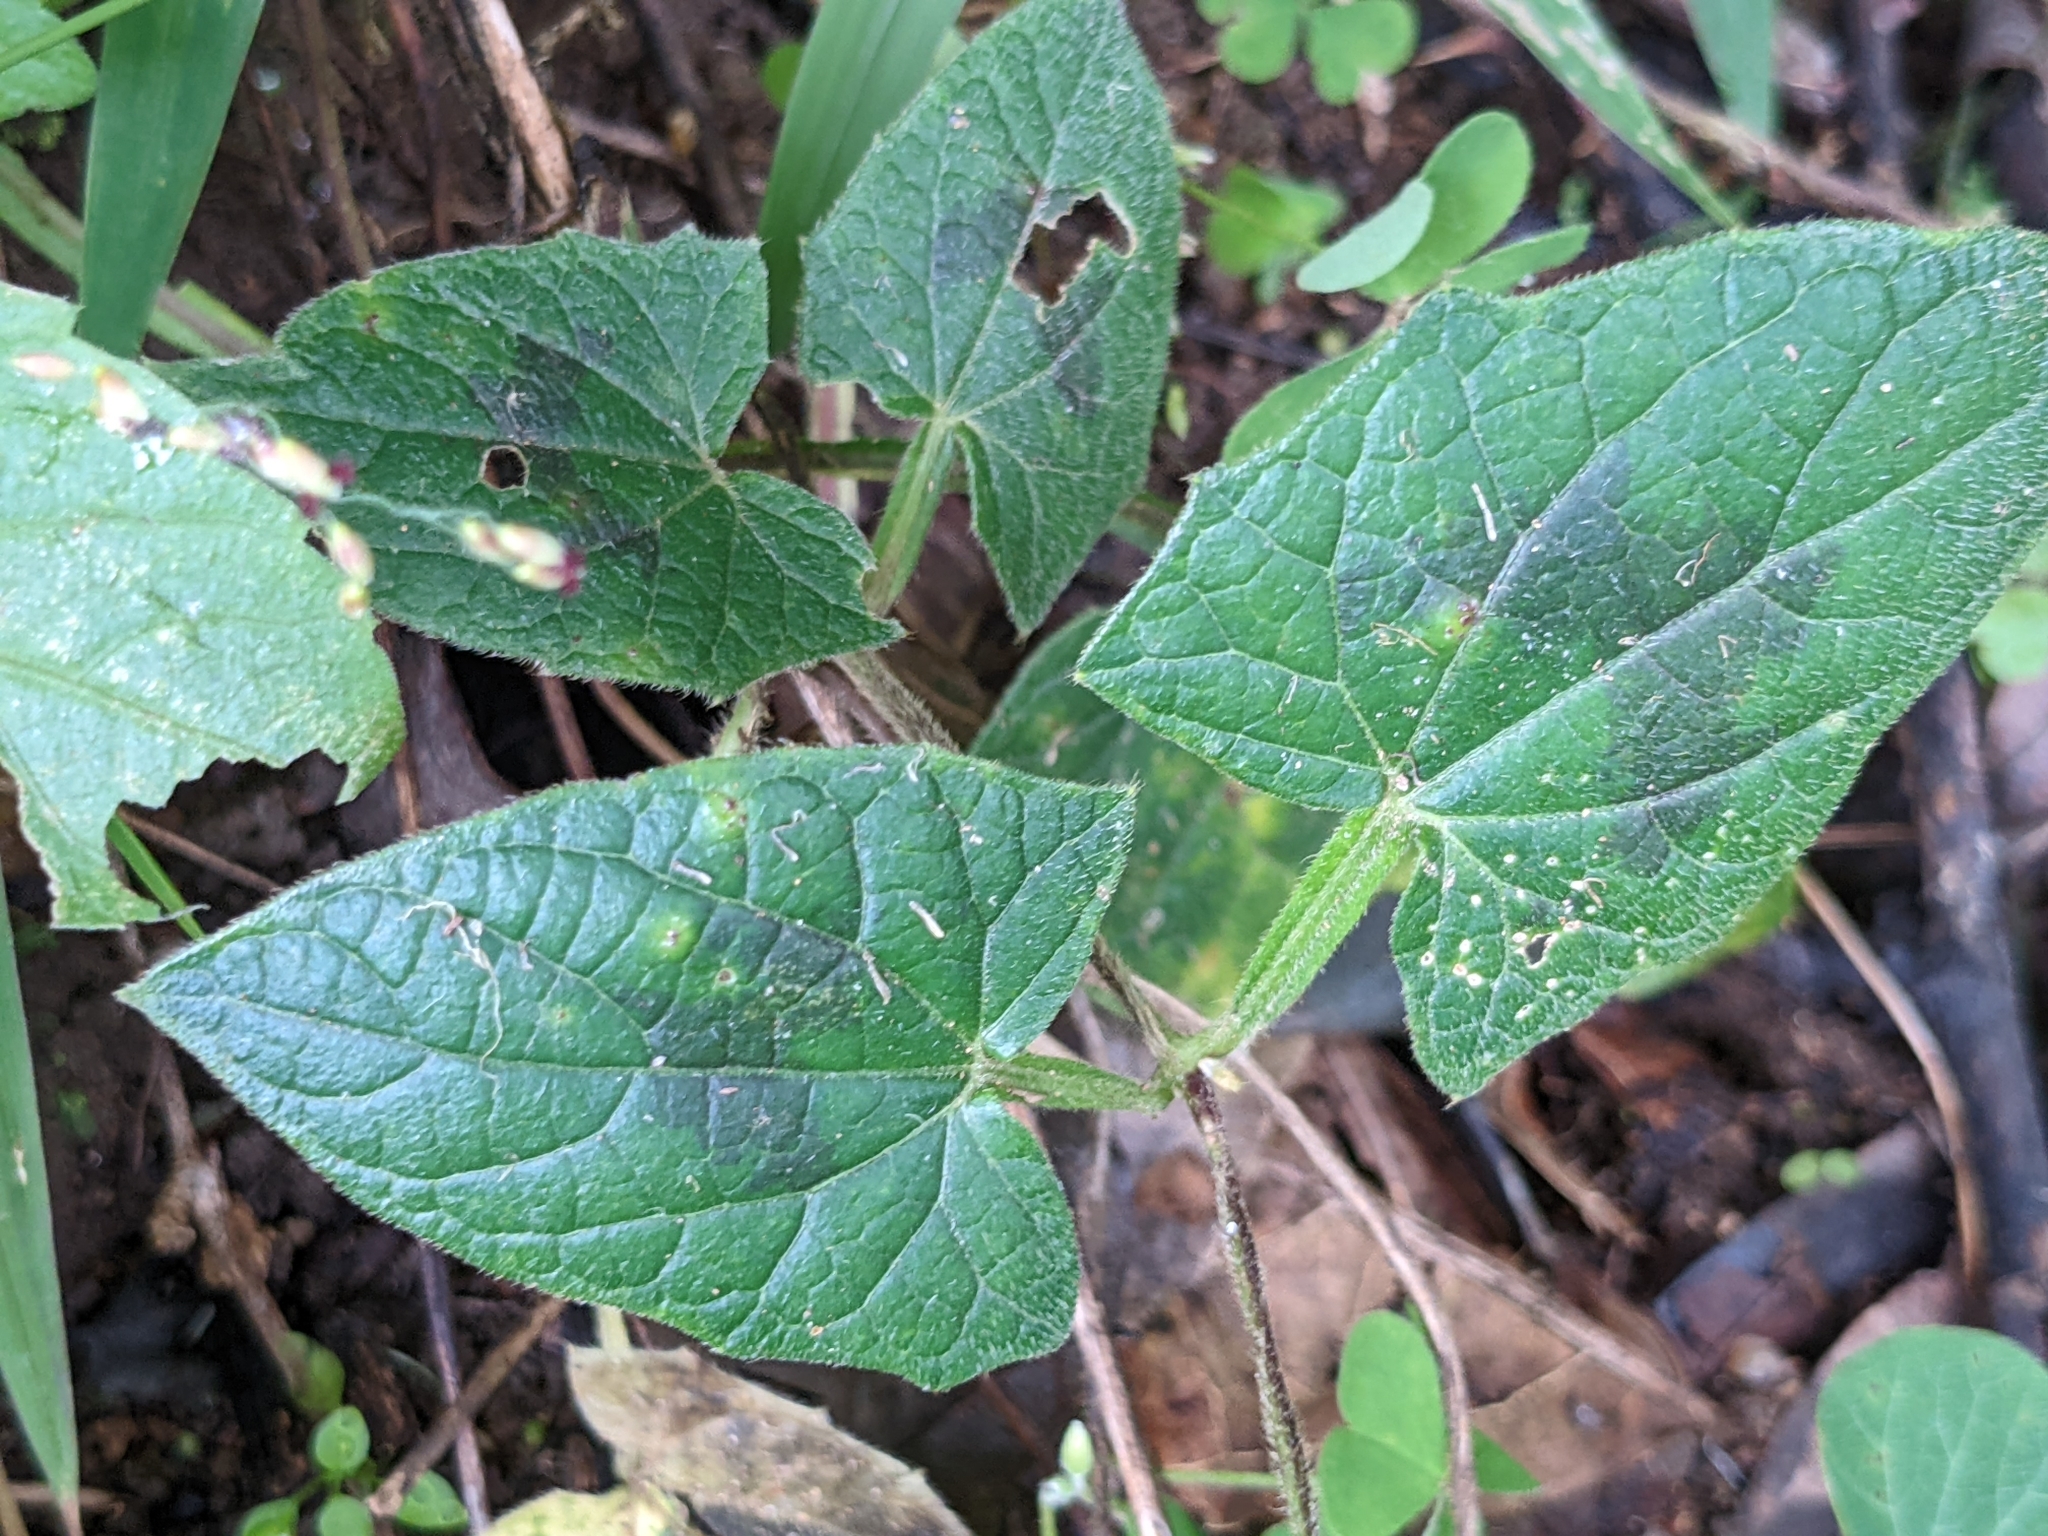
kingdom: Plantae
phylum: Tracheophyta
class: Magnoliopsida
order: Lamiales
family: Acanthaceae
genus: Thunbergia
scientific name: Thunbergia alata
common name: Blackeyed susan vine
